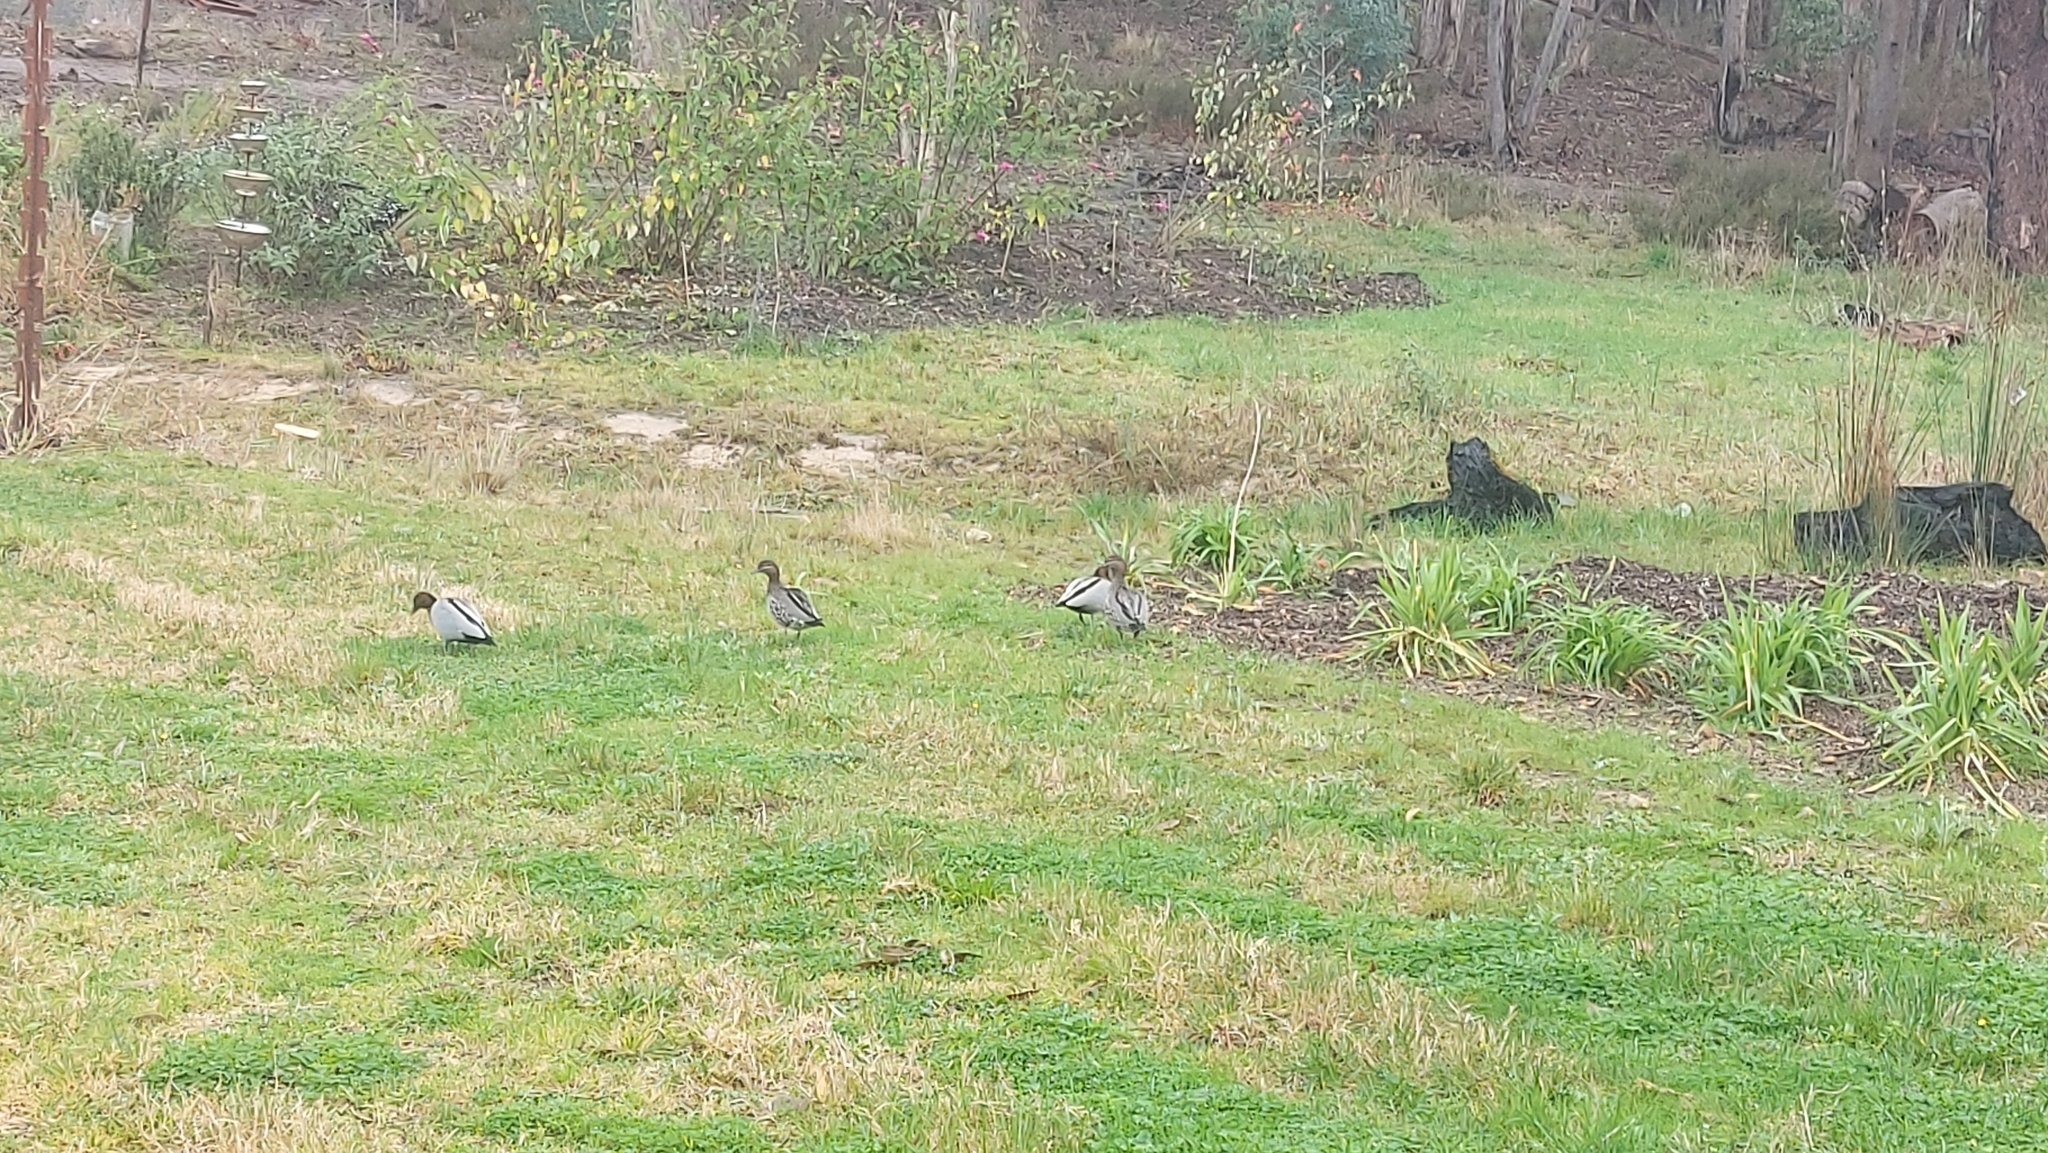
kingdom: Animalia
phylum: Chordata
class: Aves
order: Anseriformes
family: Anatidae
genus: Chenonetta
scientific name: Chenonetta jubata
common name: Maned duck
